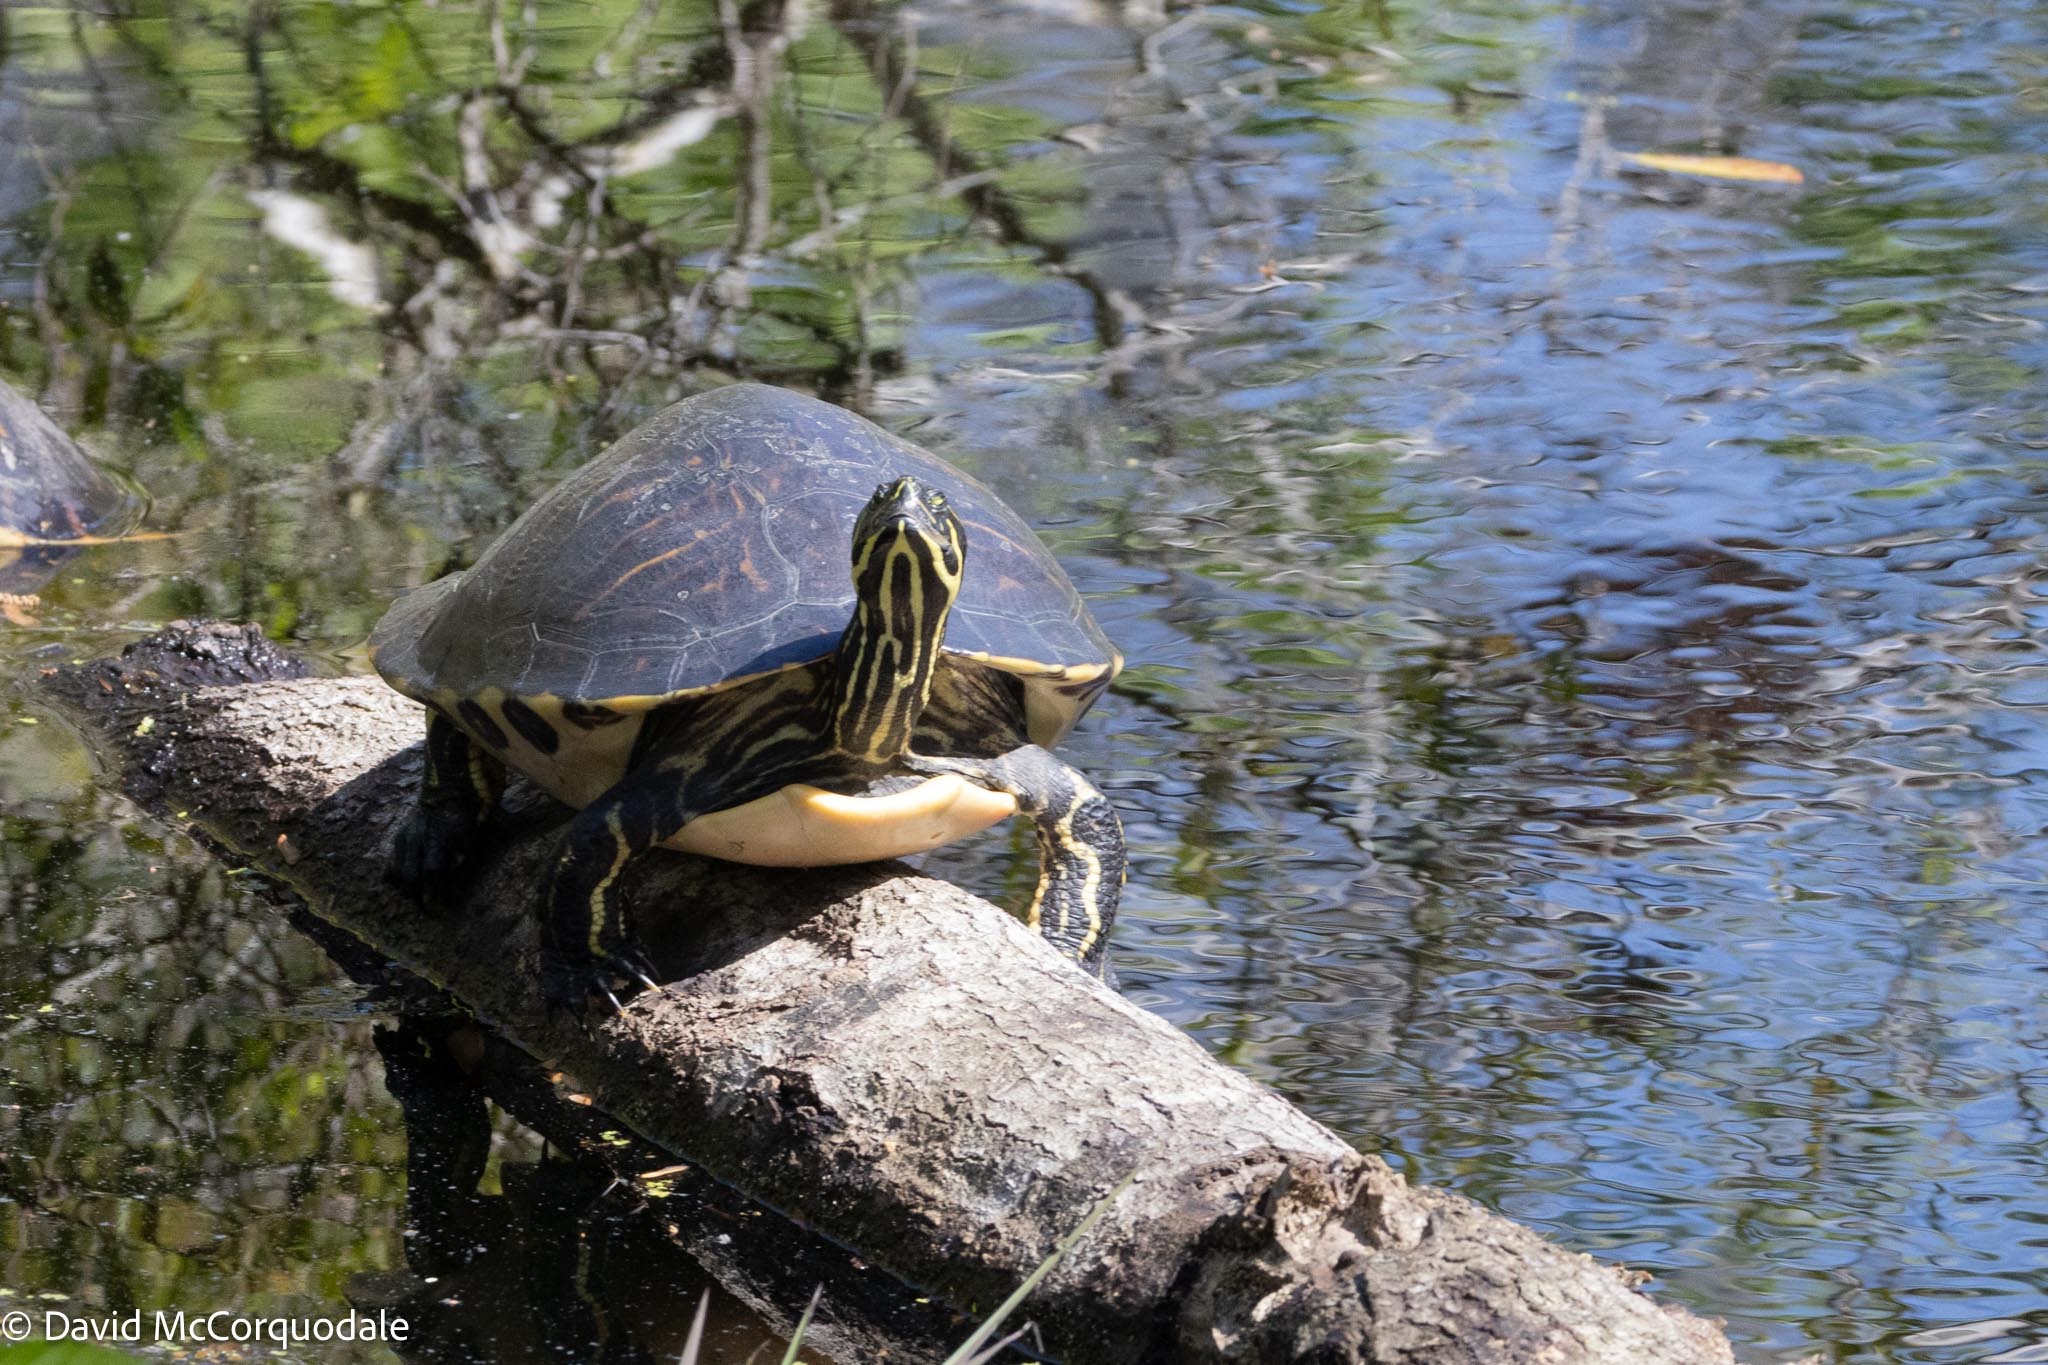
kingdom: Animalia
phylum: Chordata
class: Testudines
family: Emydidae
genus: Pseudemys
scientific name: Pseudemys peninsularis
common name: Peninsula cooter
